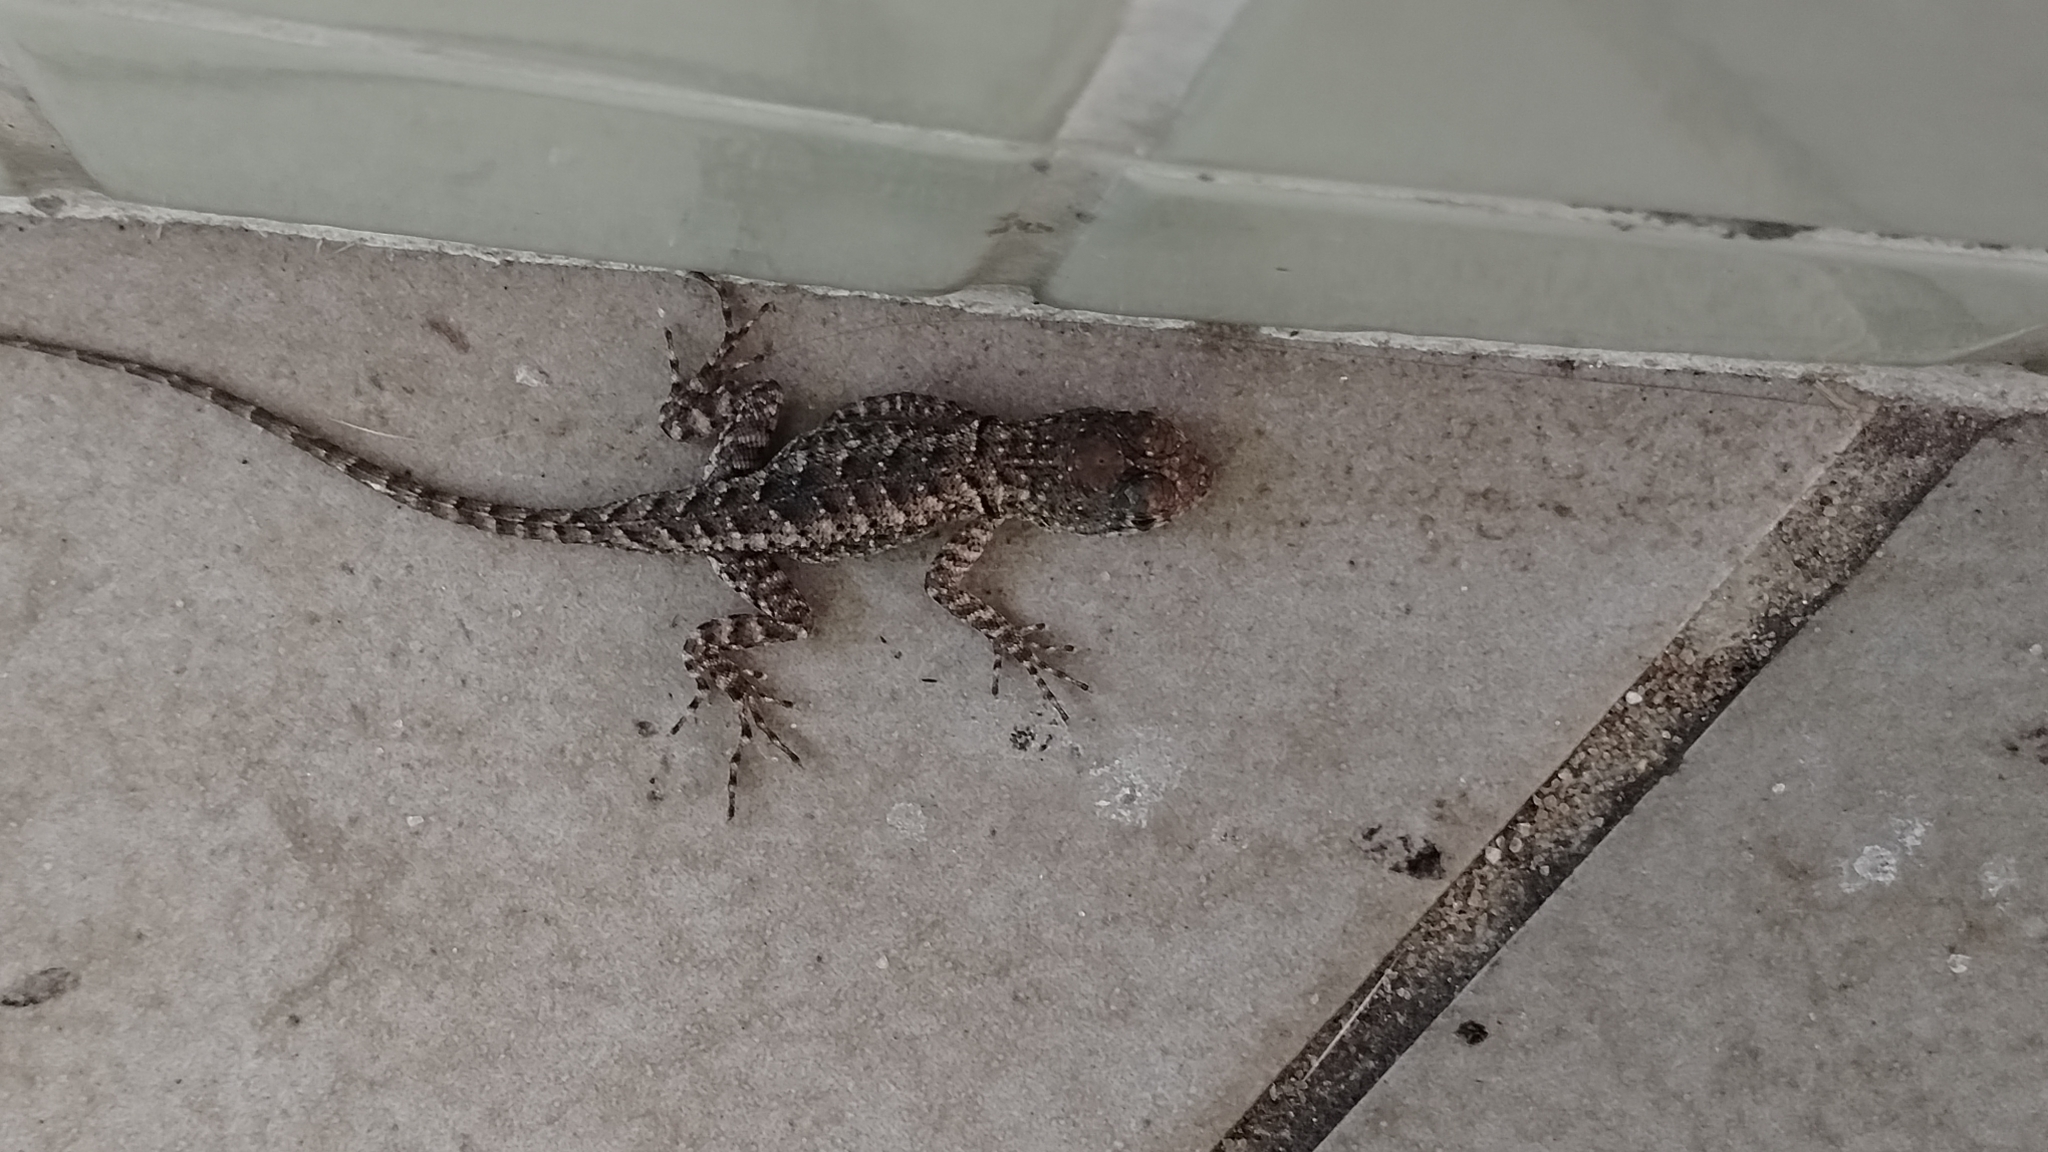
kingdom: Animalia
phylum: Chordata
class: Squamata
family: Tropiduridae
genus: Tropidurus
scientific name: Tropidurus hispidus
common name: Peters' lava lizard
